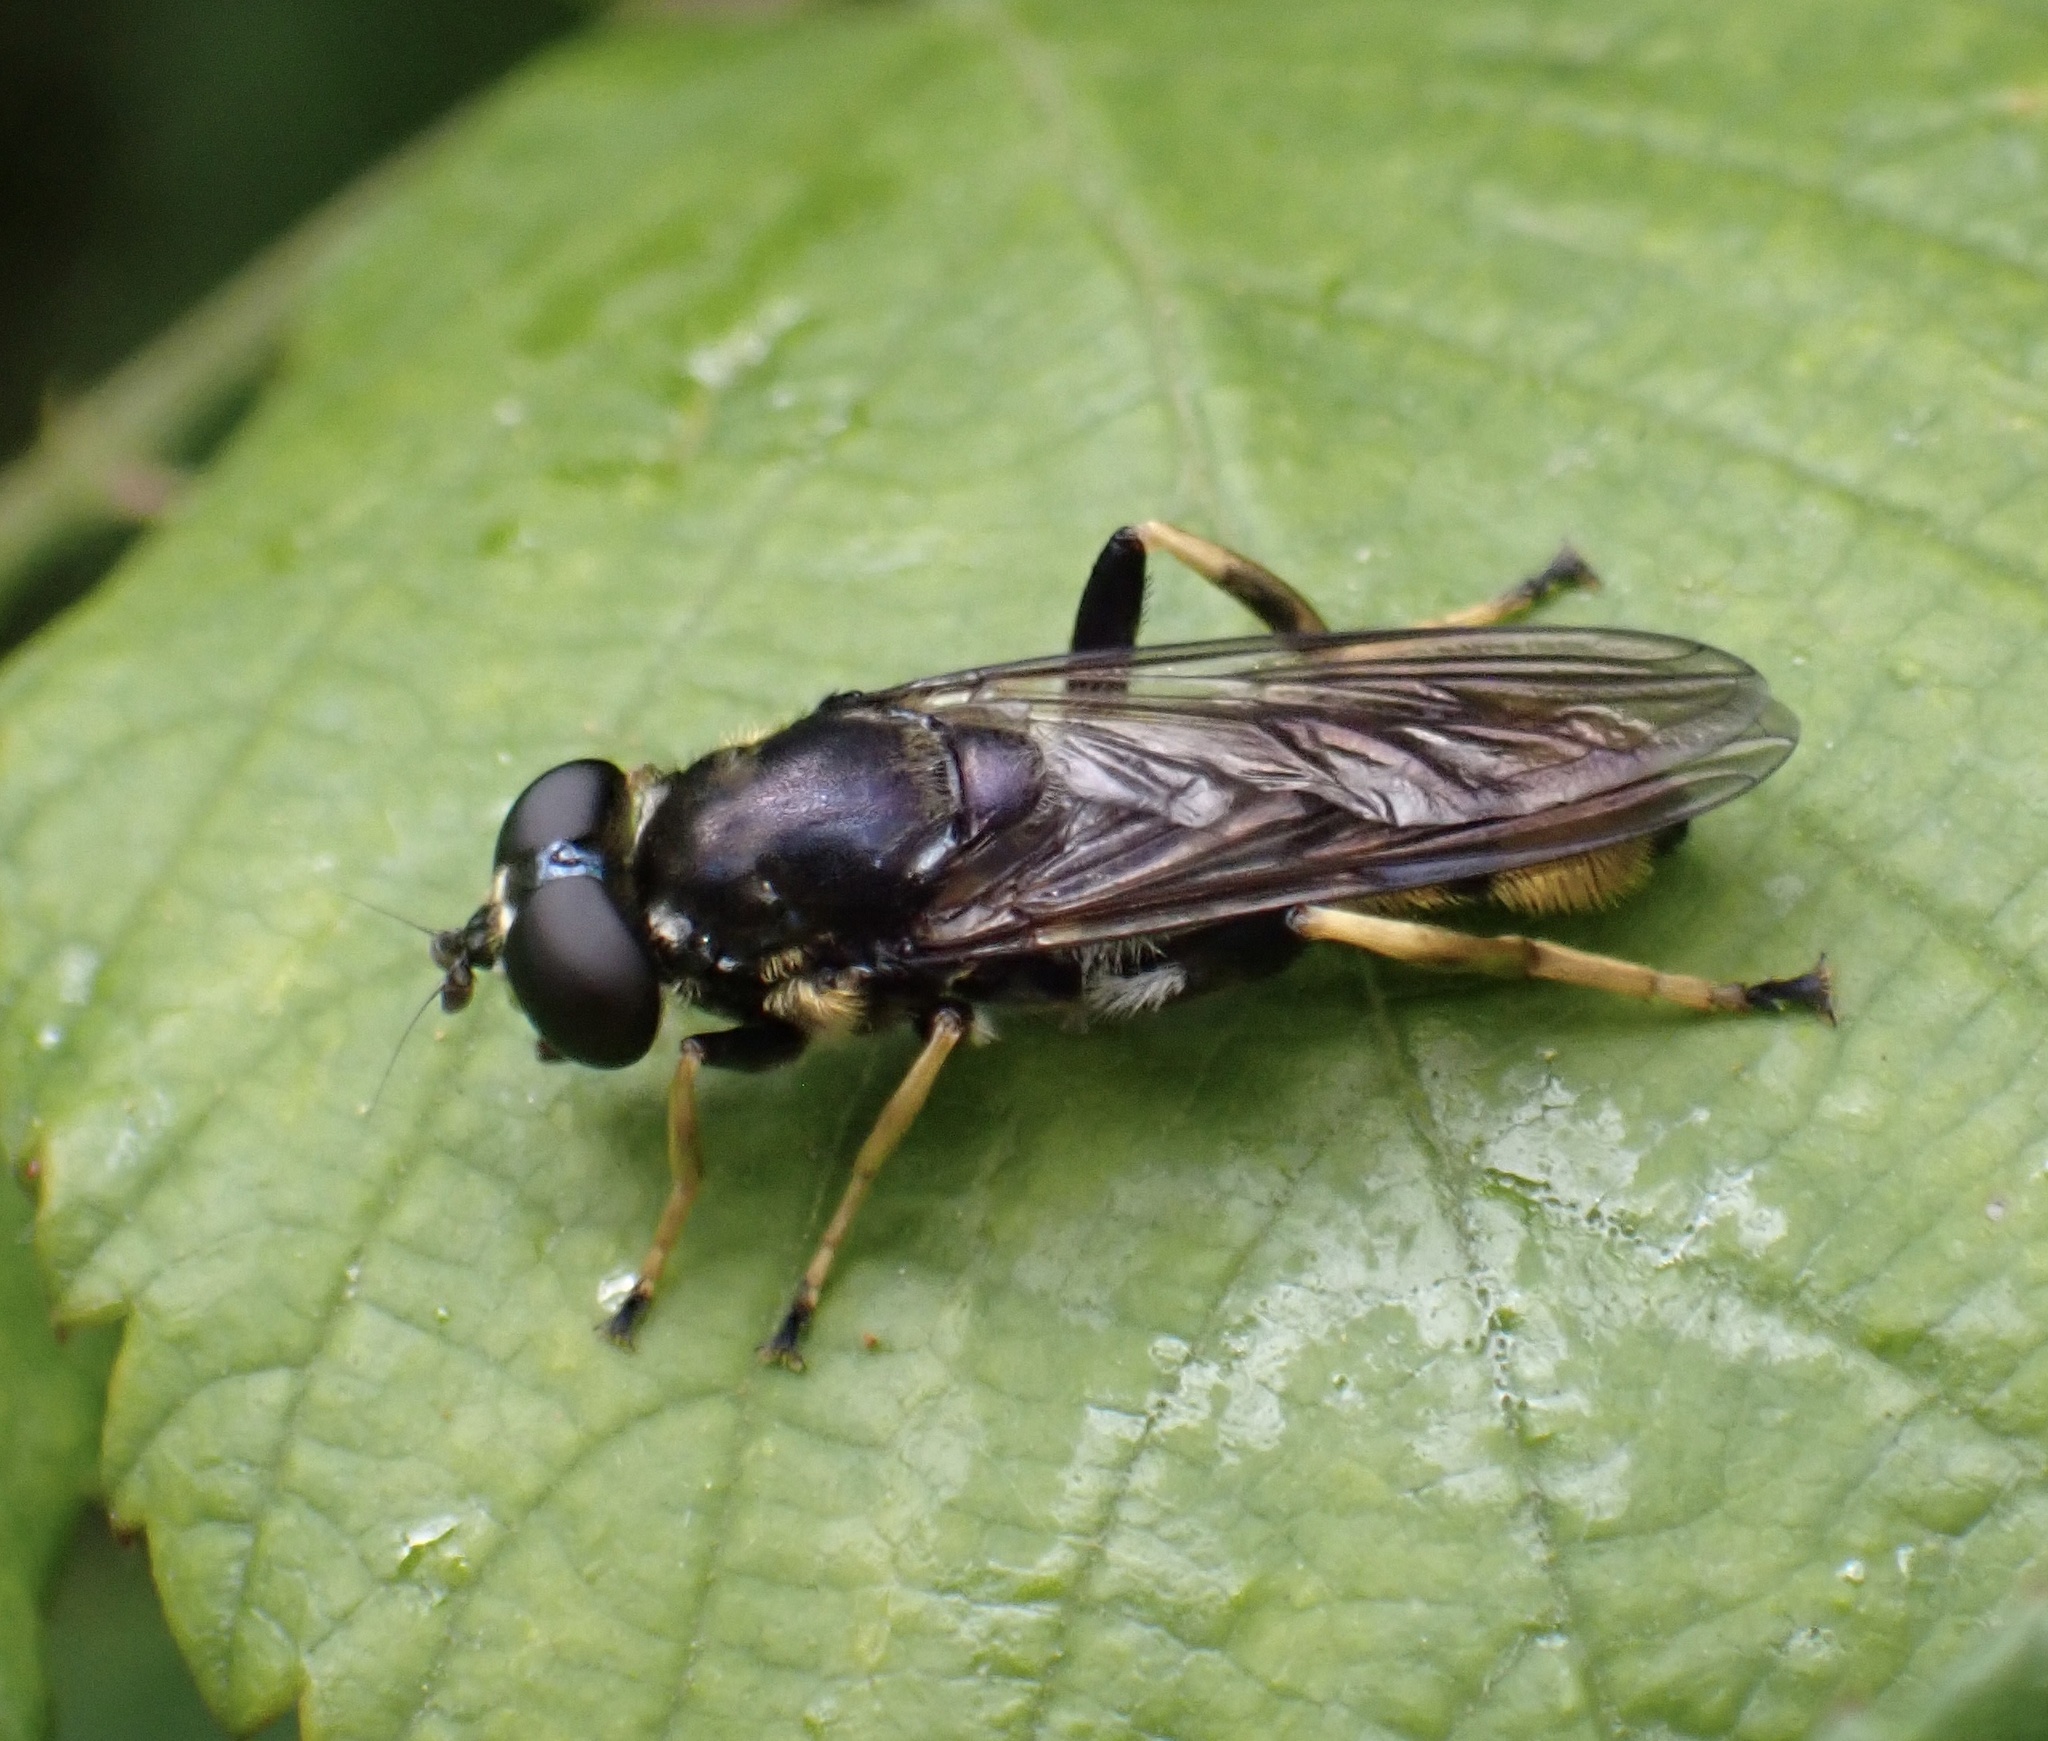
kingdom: Animalia
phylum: Arthropoda
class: Insecta
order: Diptera
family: Syrphidae
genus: Xylota
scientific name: Xylota sylvarum
